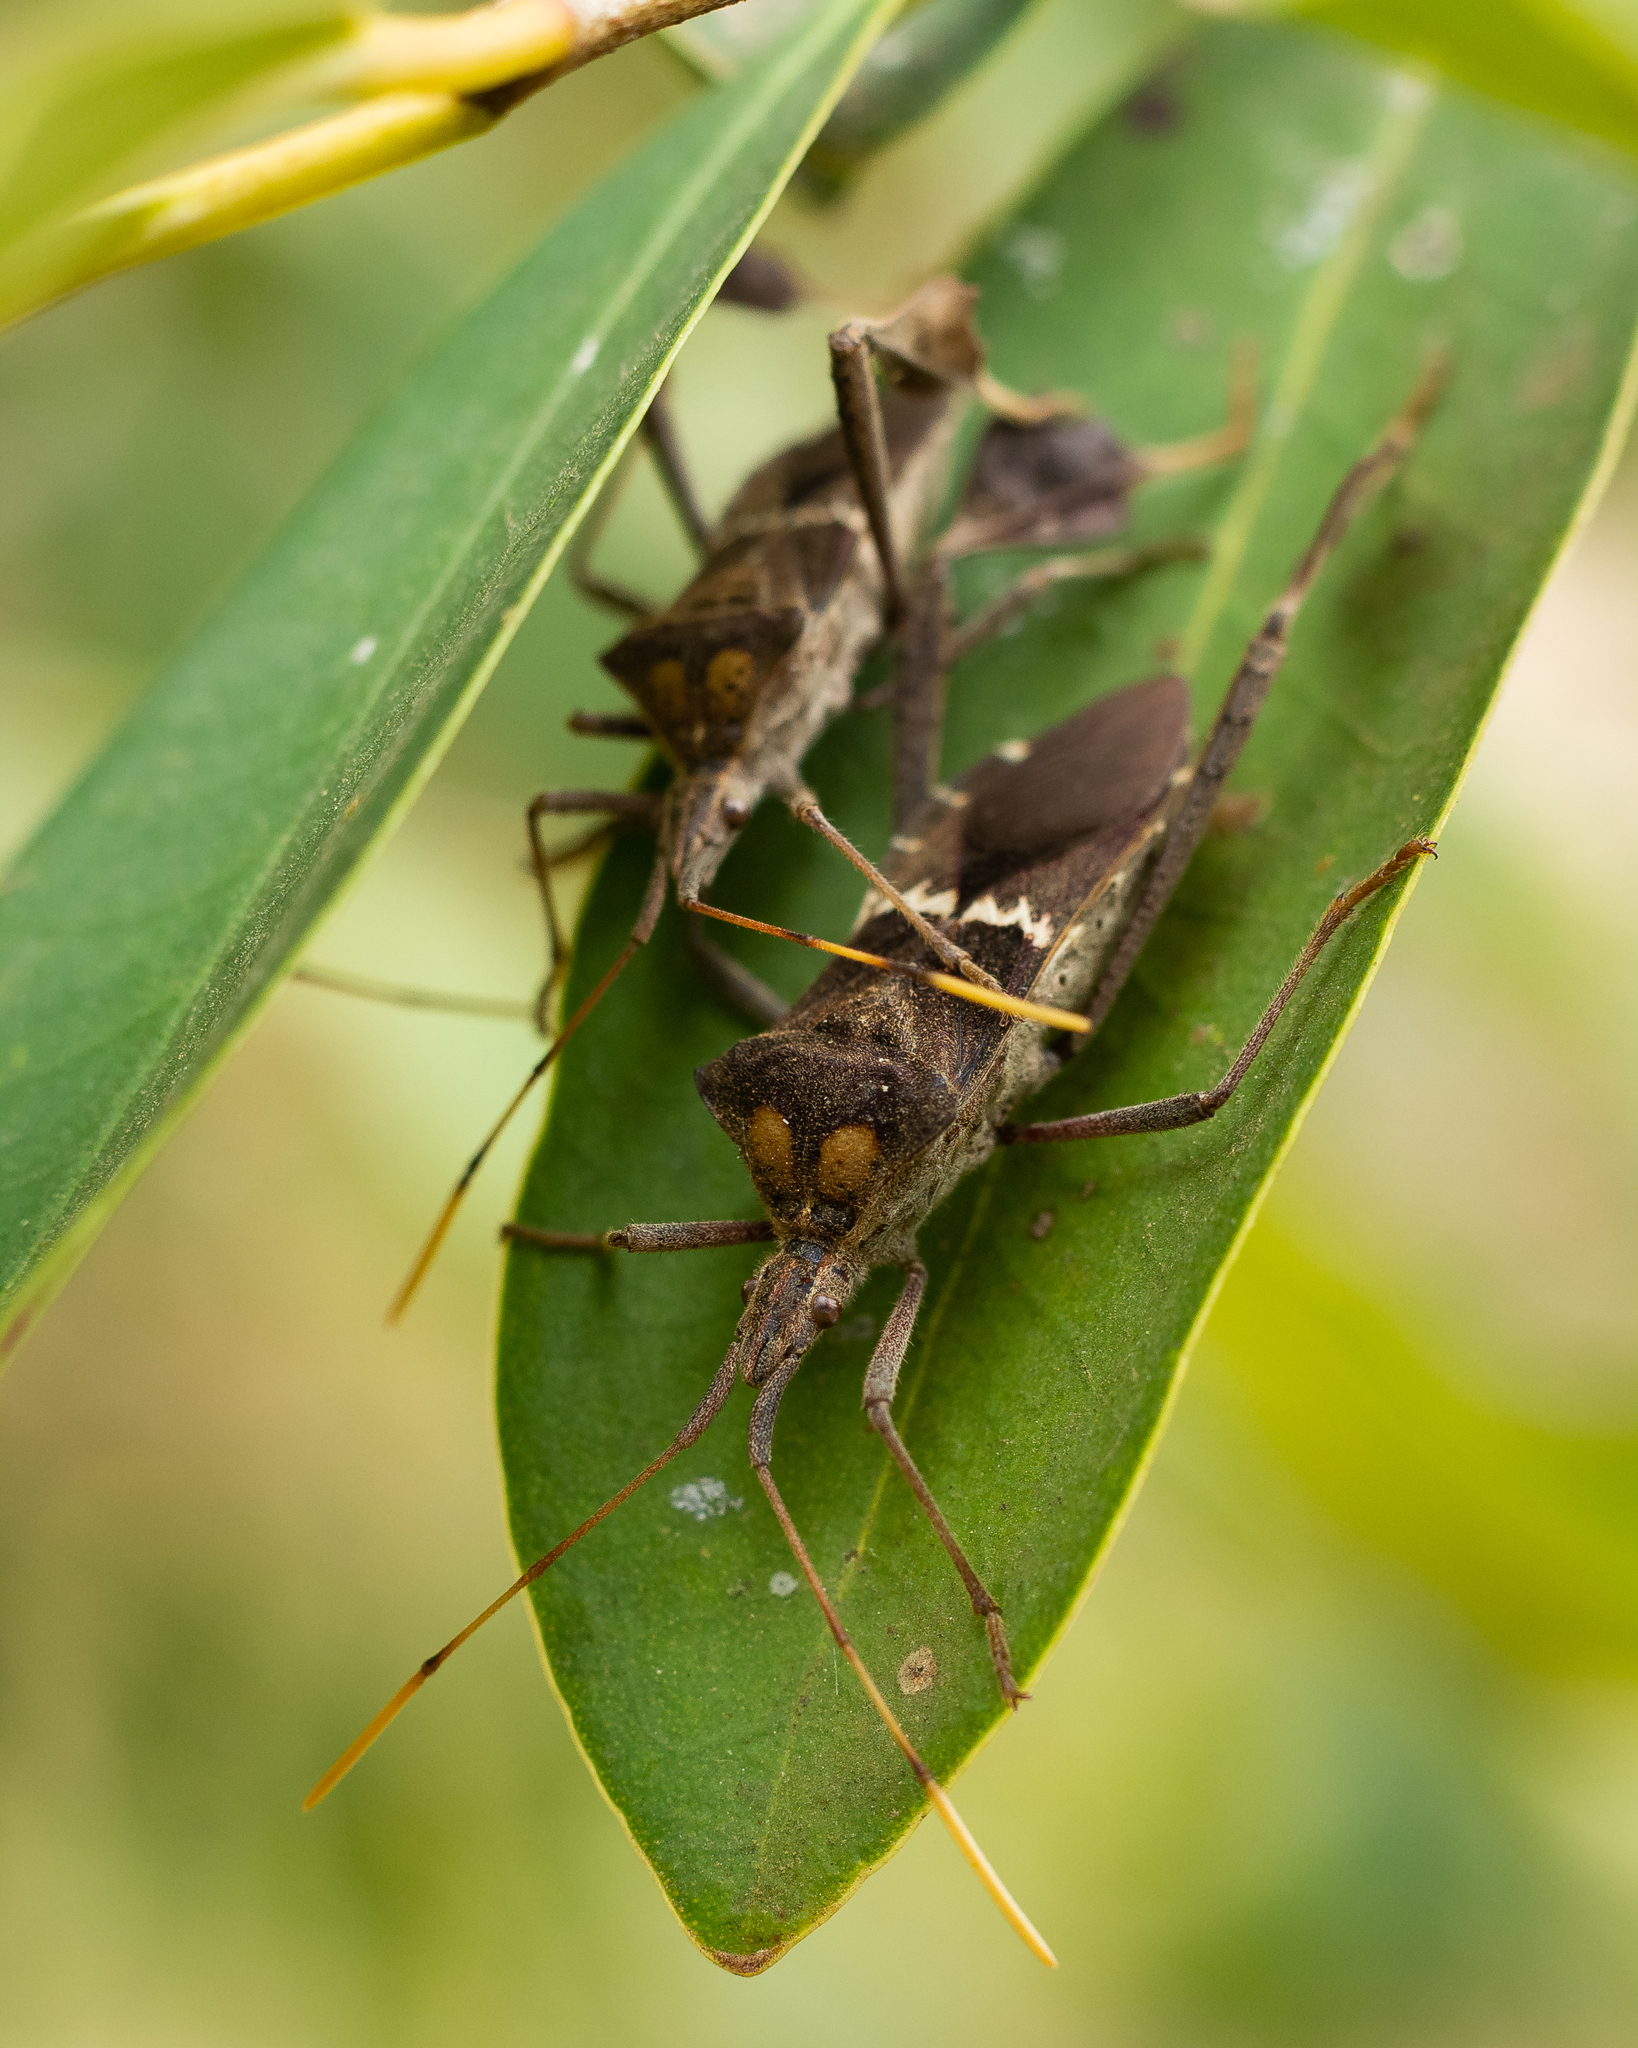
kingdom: Animalia
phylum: Arthropoda
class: Insecta
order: Hemiptera
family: Coreidae
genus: Leptoglossus
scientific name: Leptoglossus zonatus
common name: Large-legged bug
